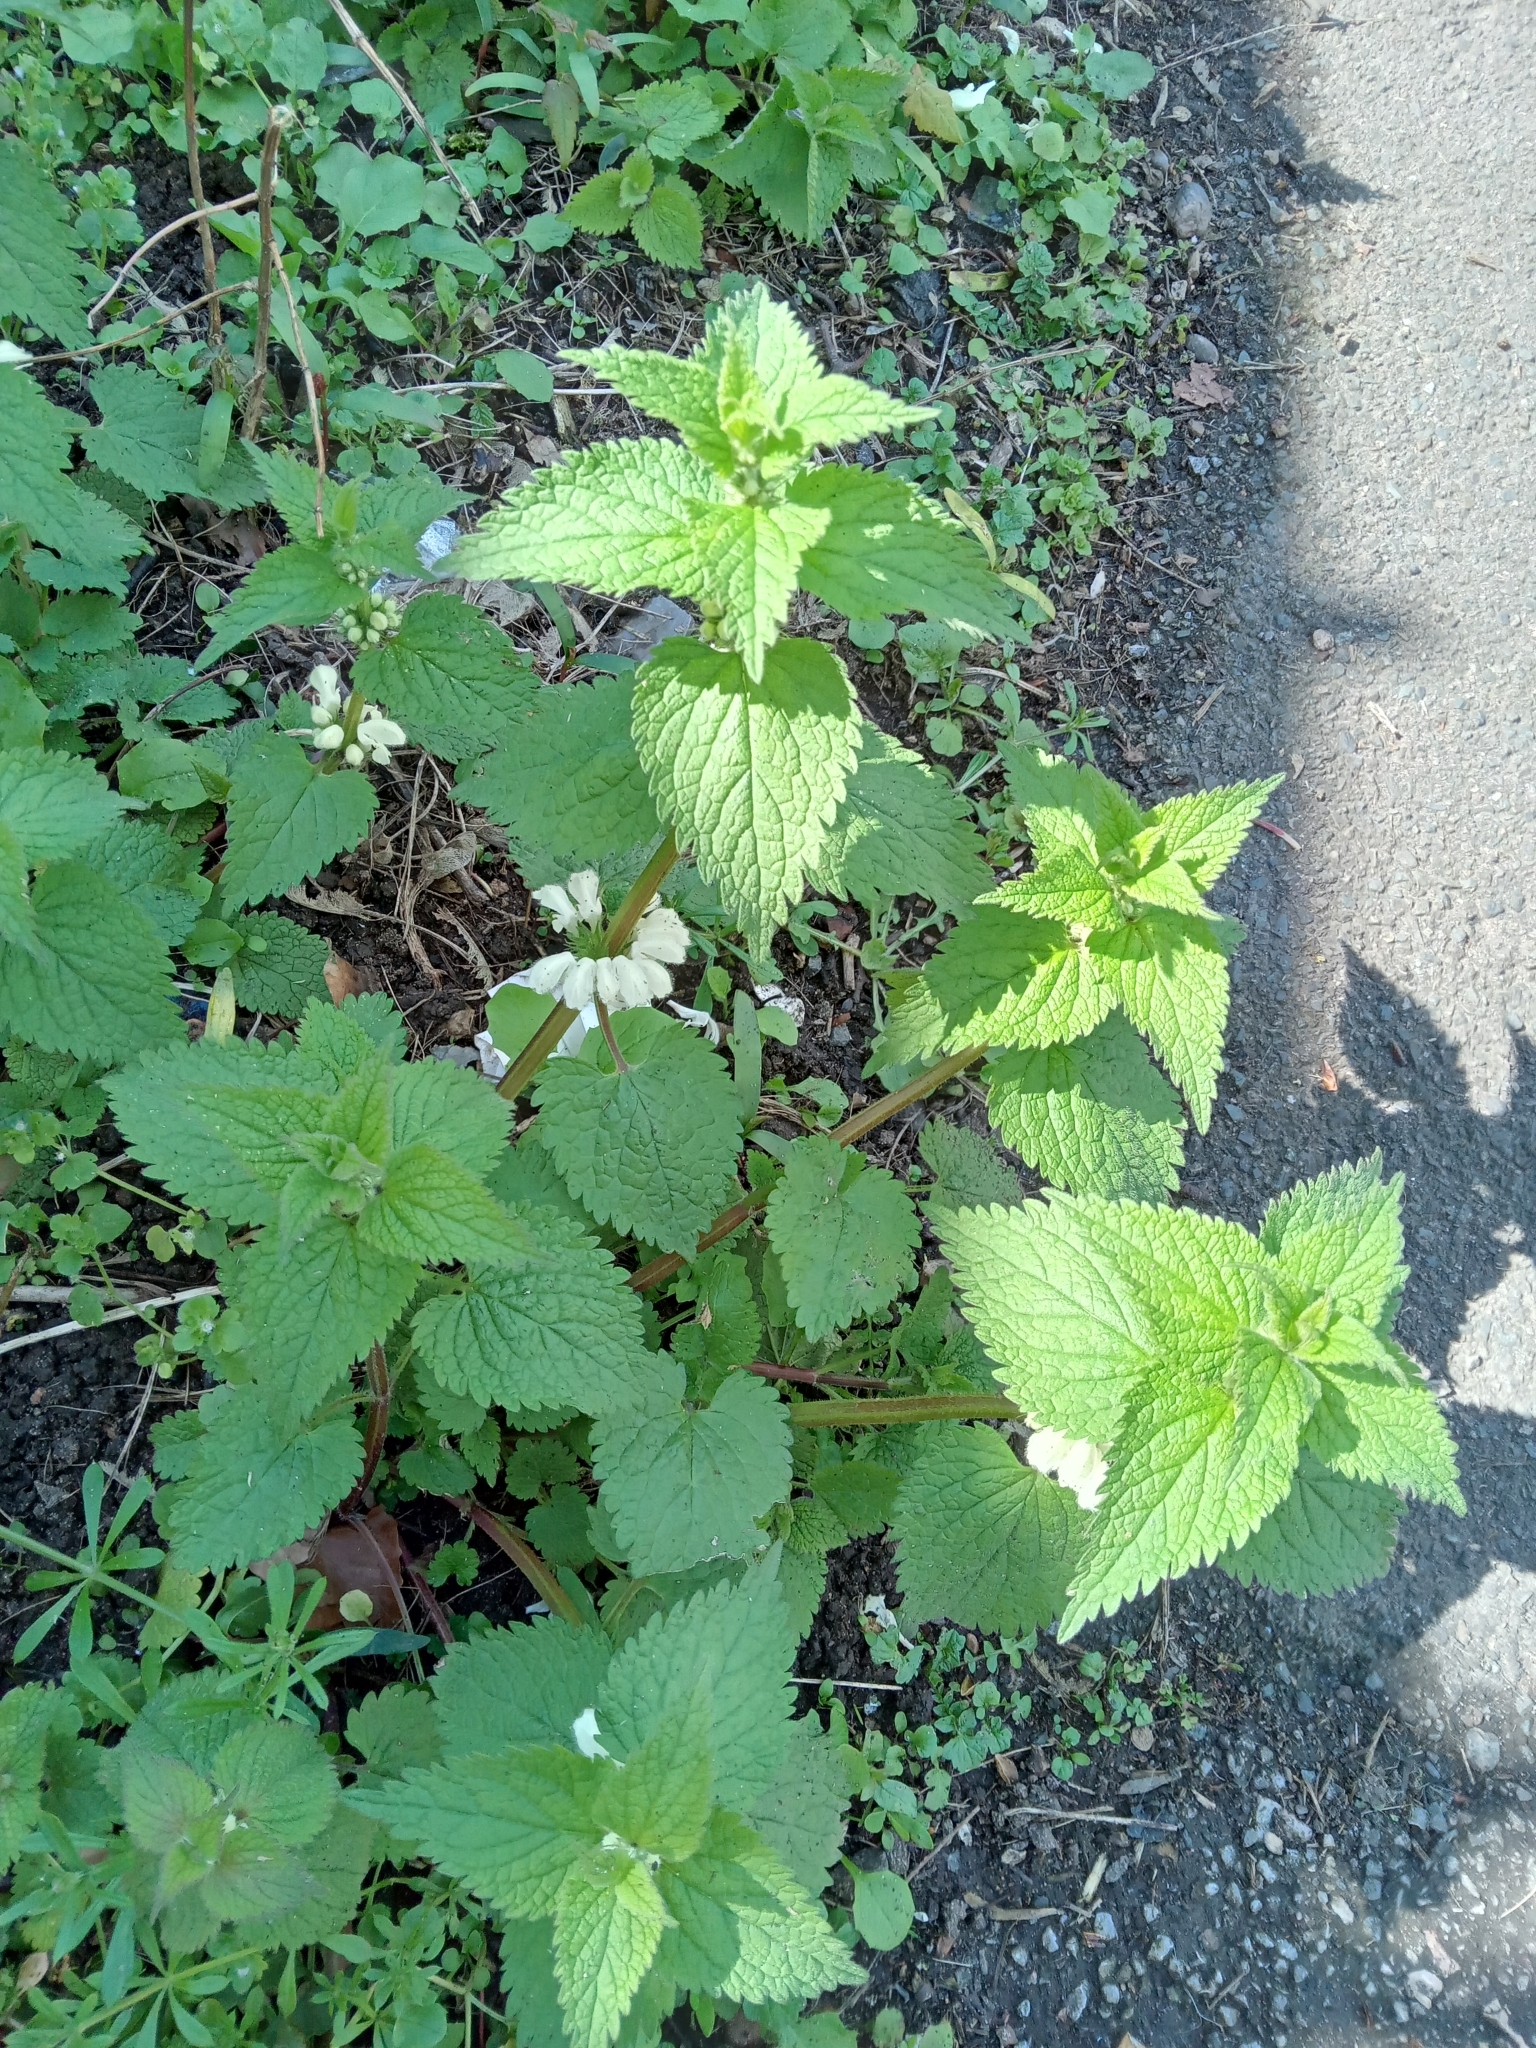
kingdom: Plantae
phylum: Tracheophyta
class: Magnoliopsida
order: Lamiales
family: Lamiaceae
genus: Lamium
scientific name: Lamium album
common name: White dead-nettle
